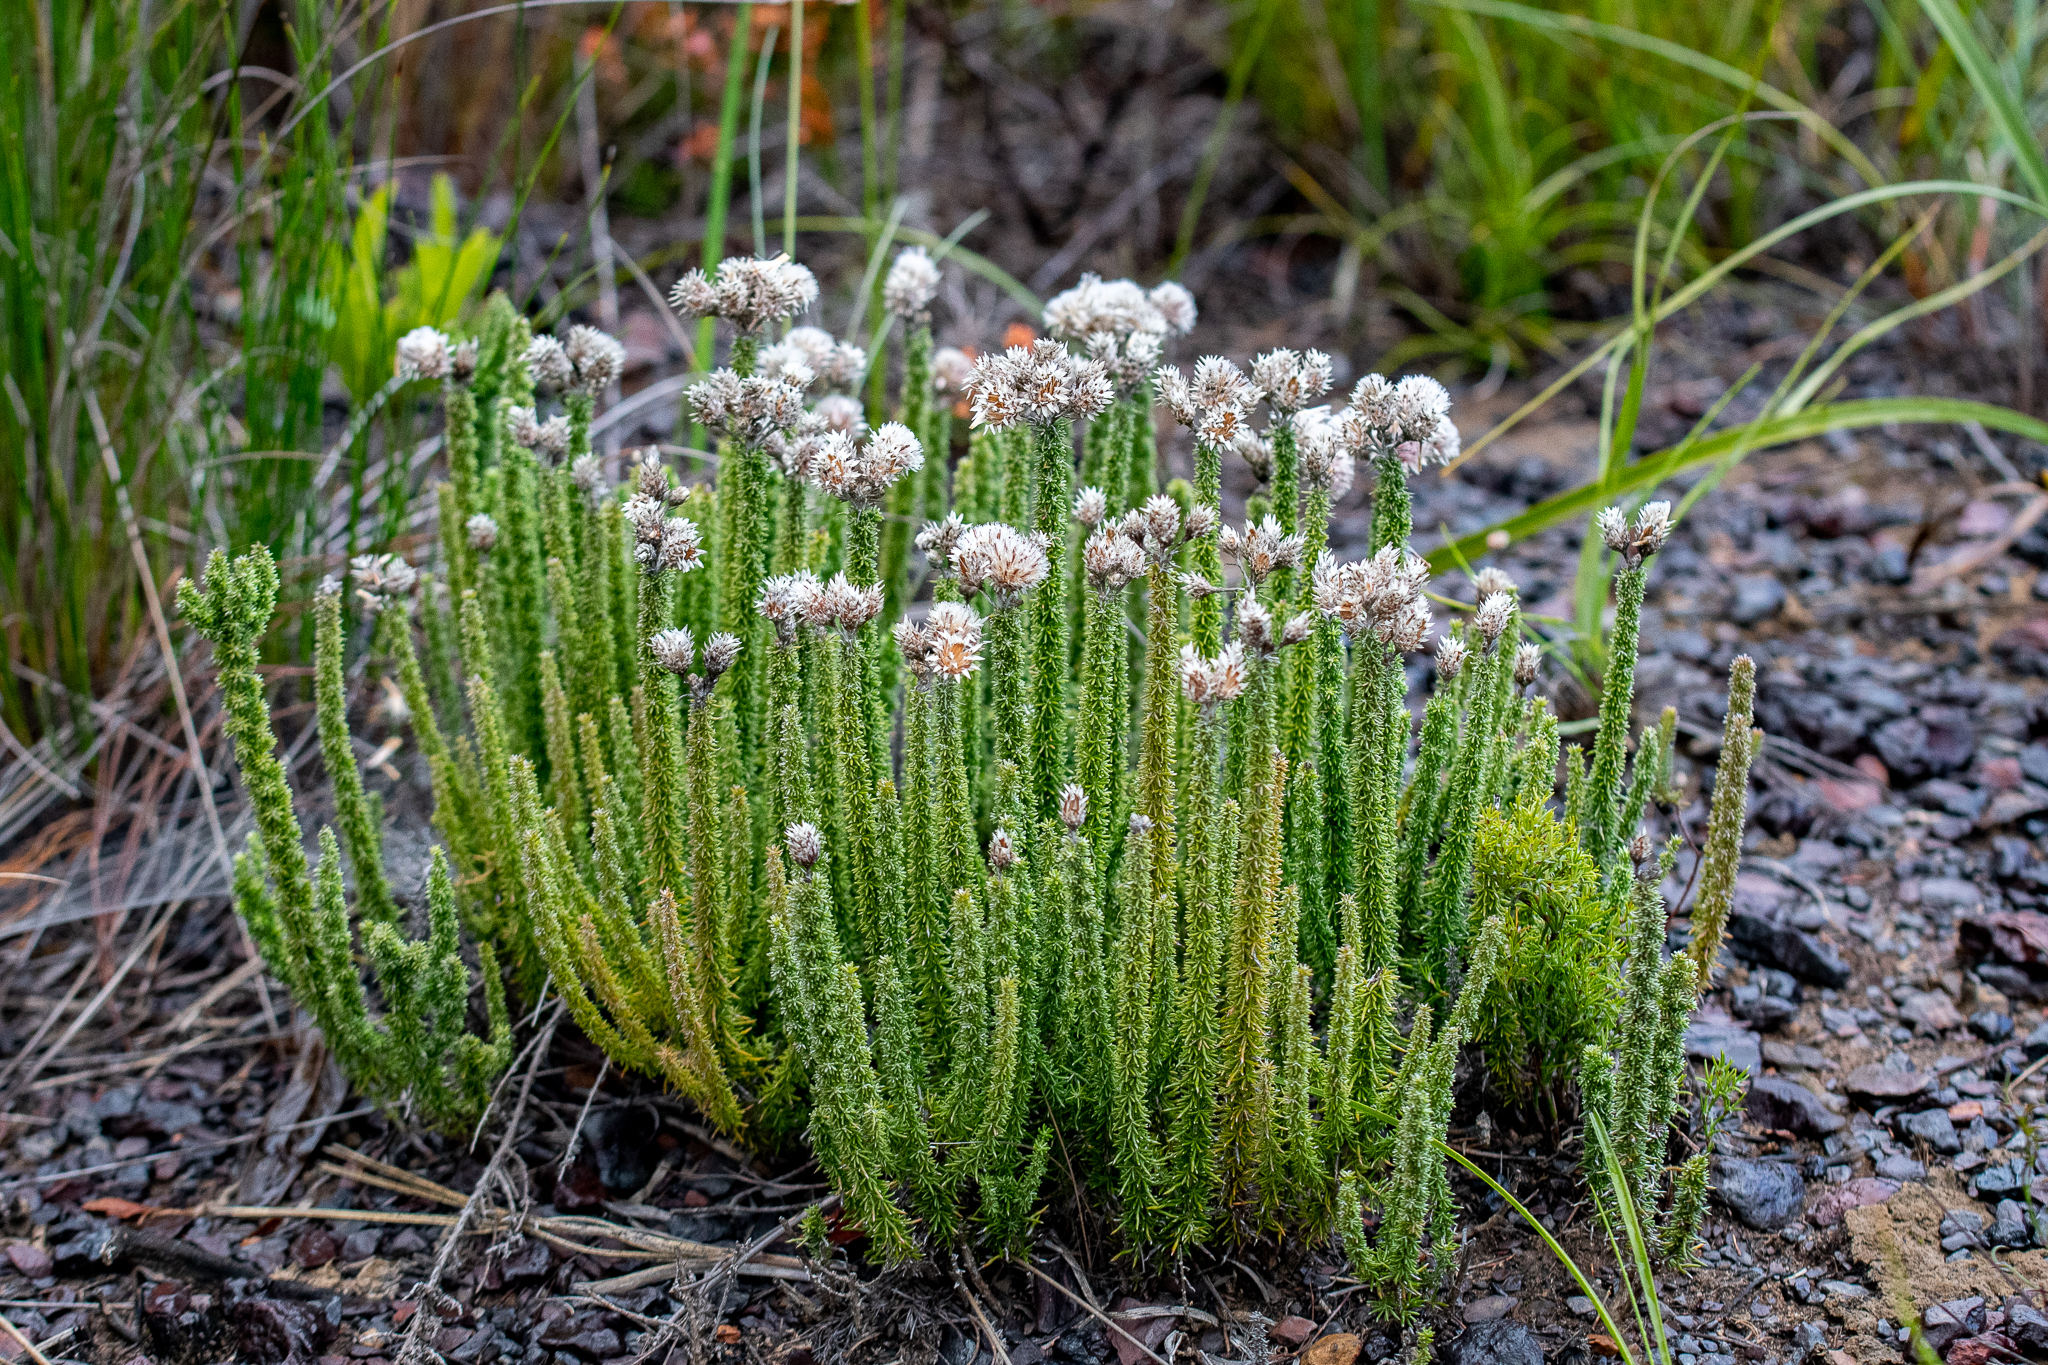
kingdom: Plantae
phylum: Tracheophyta
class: Magnoliopsida
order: Asterales
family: Asteraceae
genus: Lachnospermum
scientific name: Lachnospermum umbellatum
